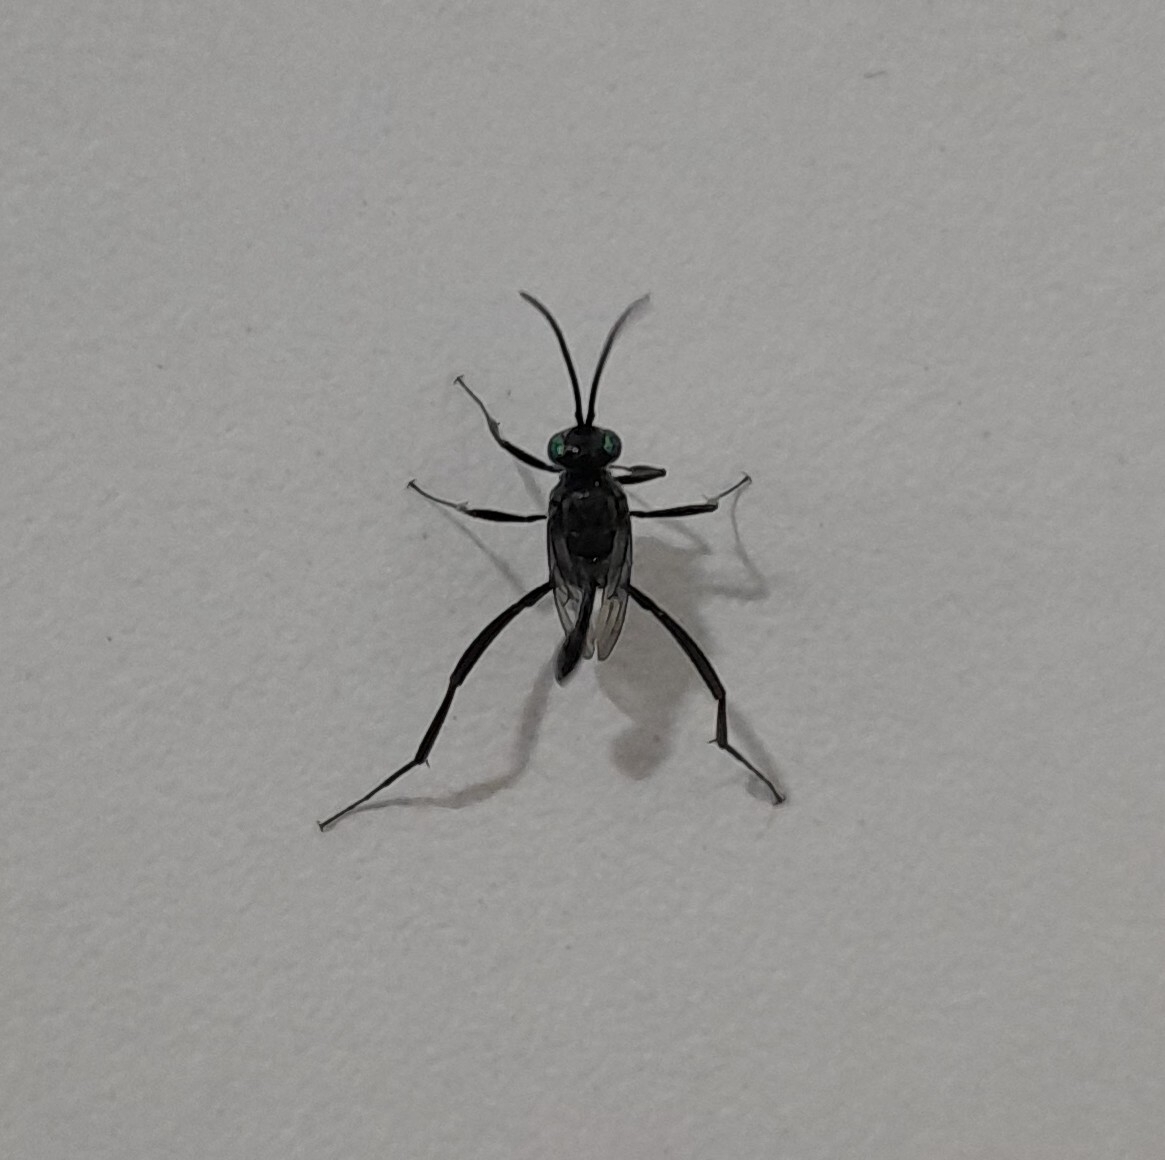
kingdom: Animalia
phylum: Arthropoda
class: Insecta
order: Hymenoptera
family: Evaniidae
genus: Evania
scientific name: Evania appendigaster
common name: Ensign wasp
